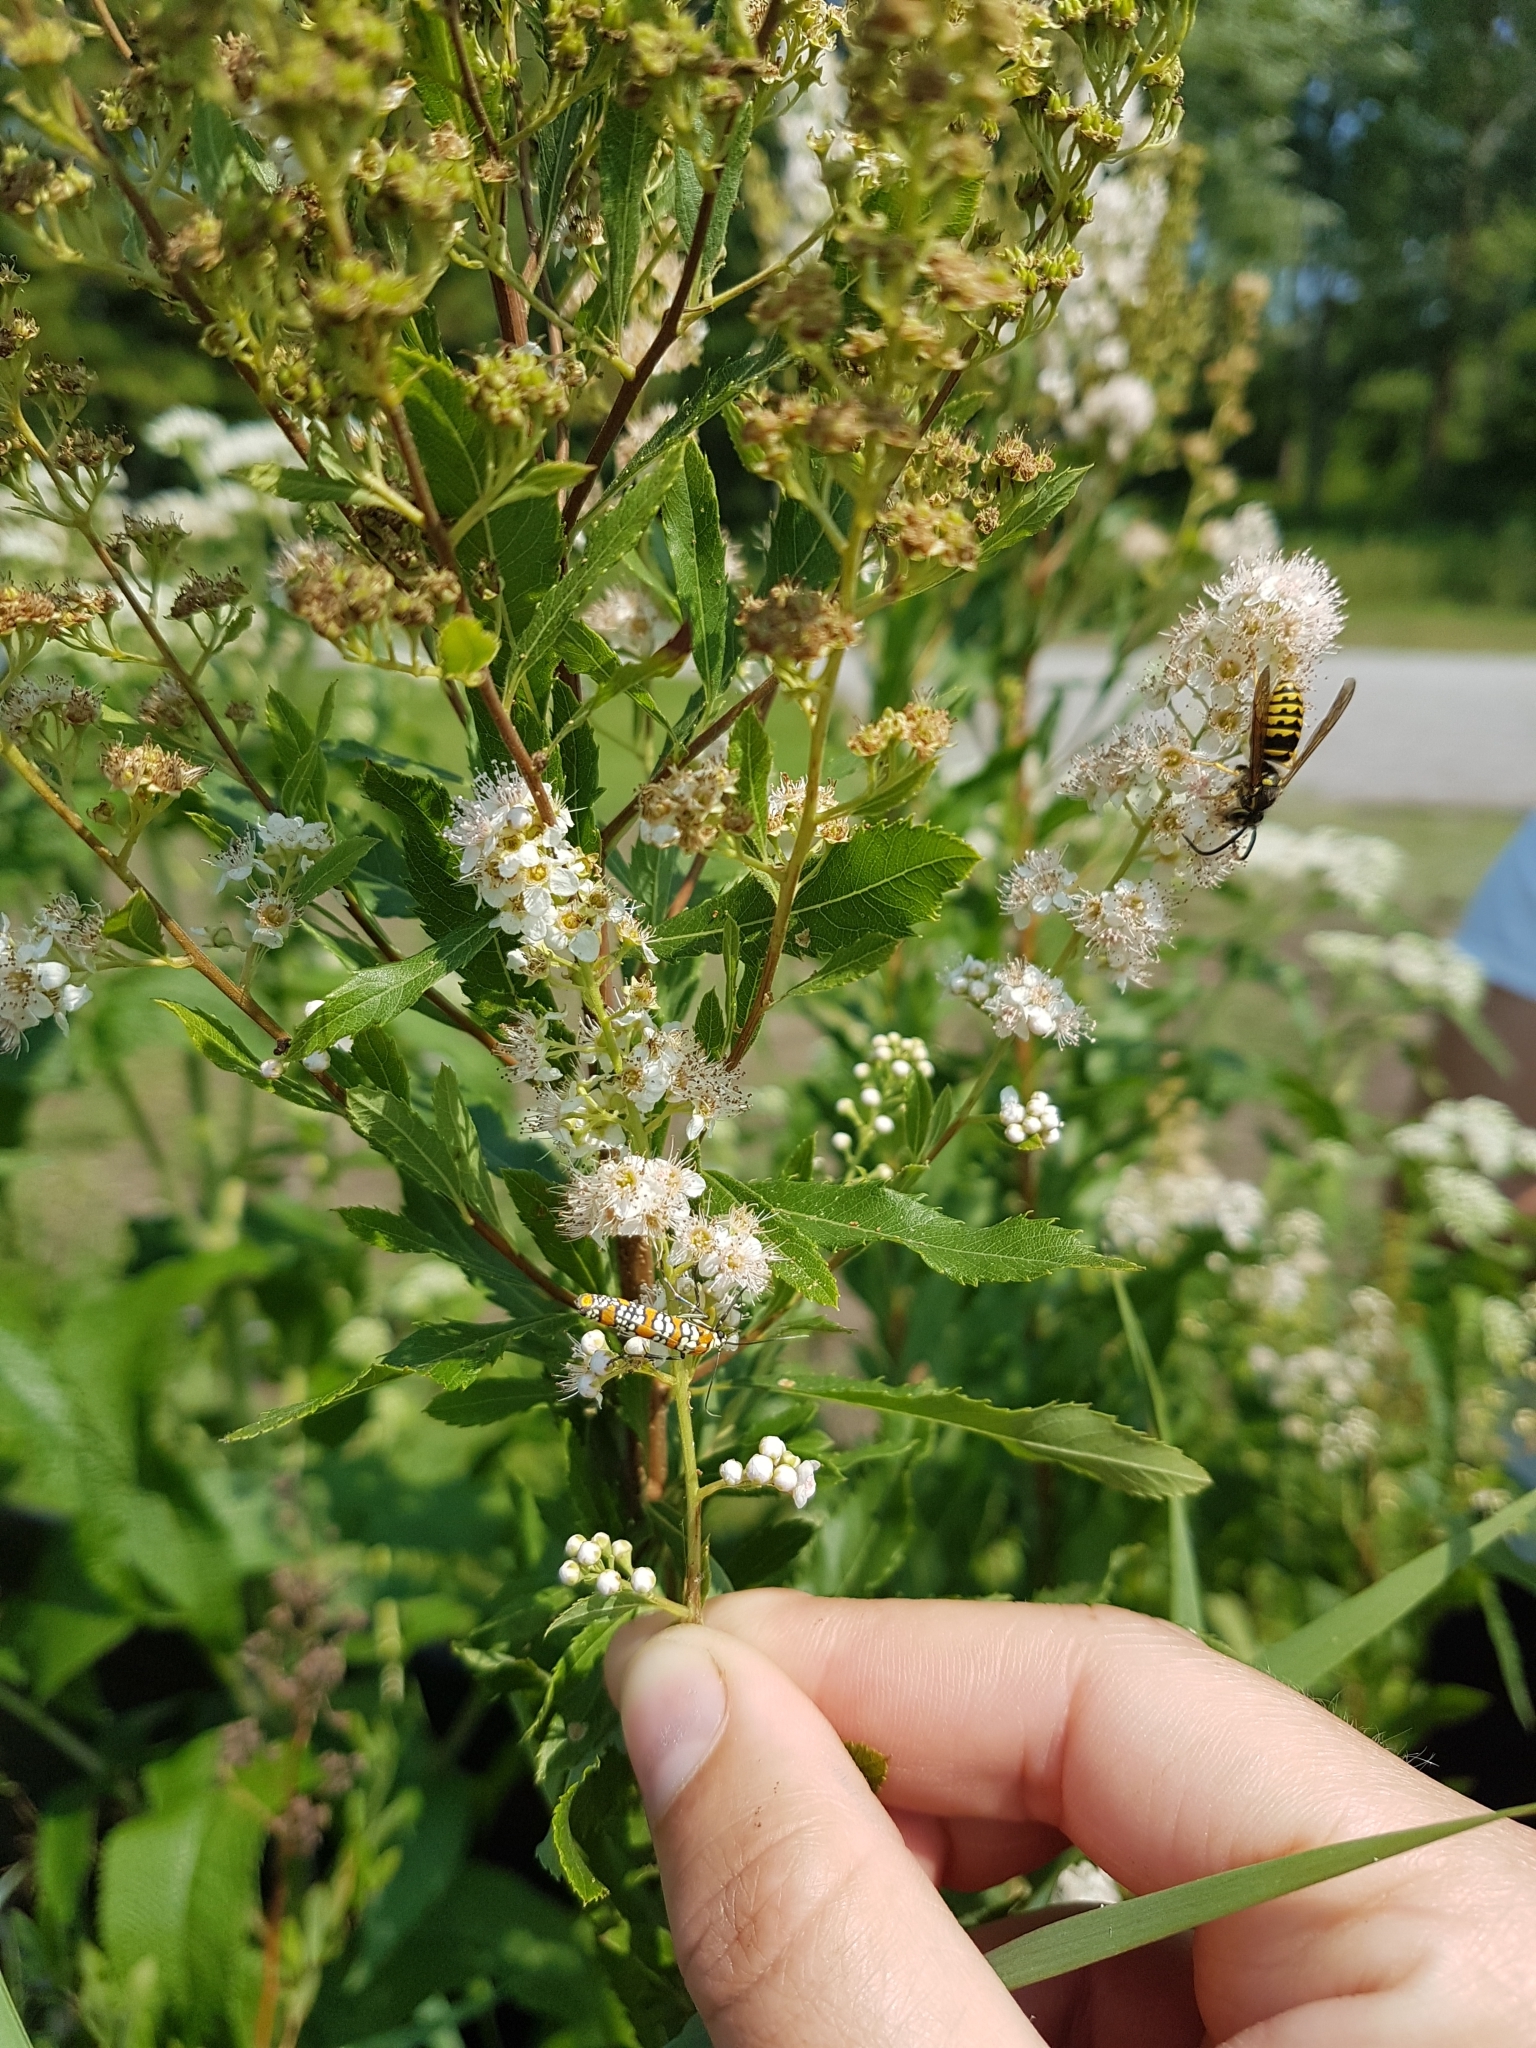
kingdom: Animalia
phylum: Arthropoda
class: Insecta
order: Lepidoptera
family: Attevidae
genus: Atteva
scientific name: Atteva punctella
